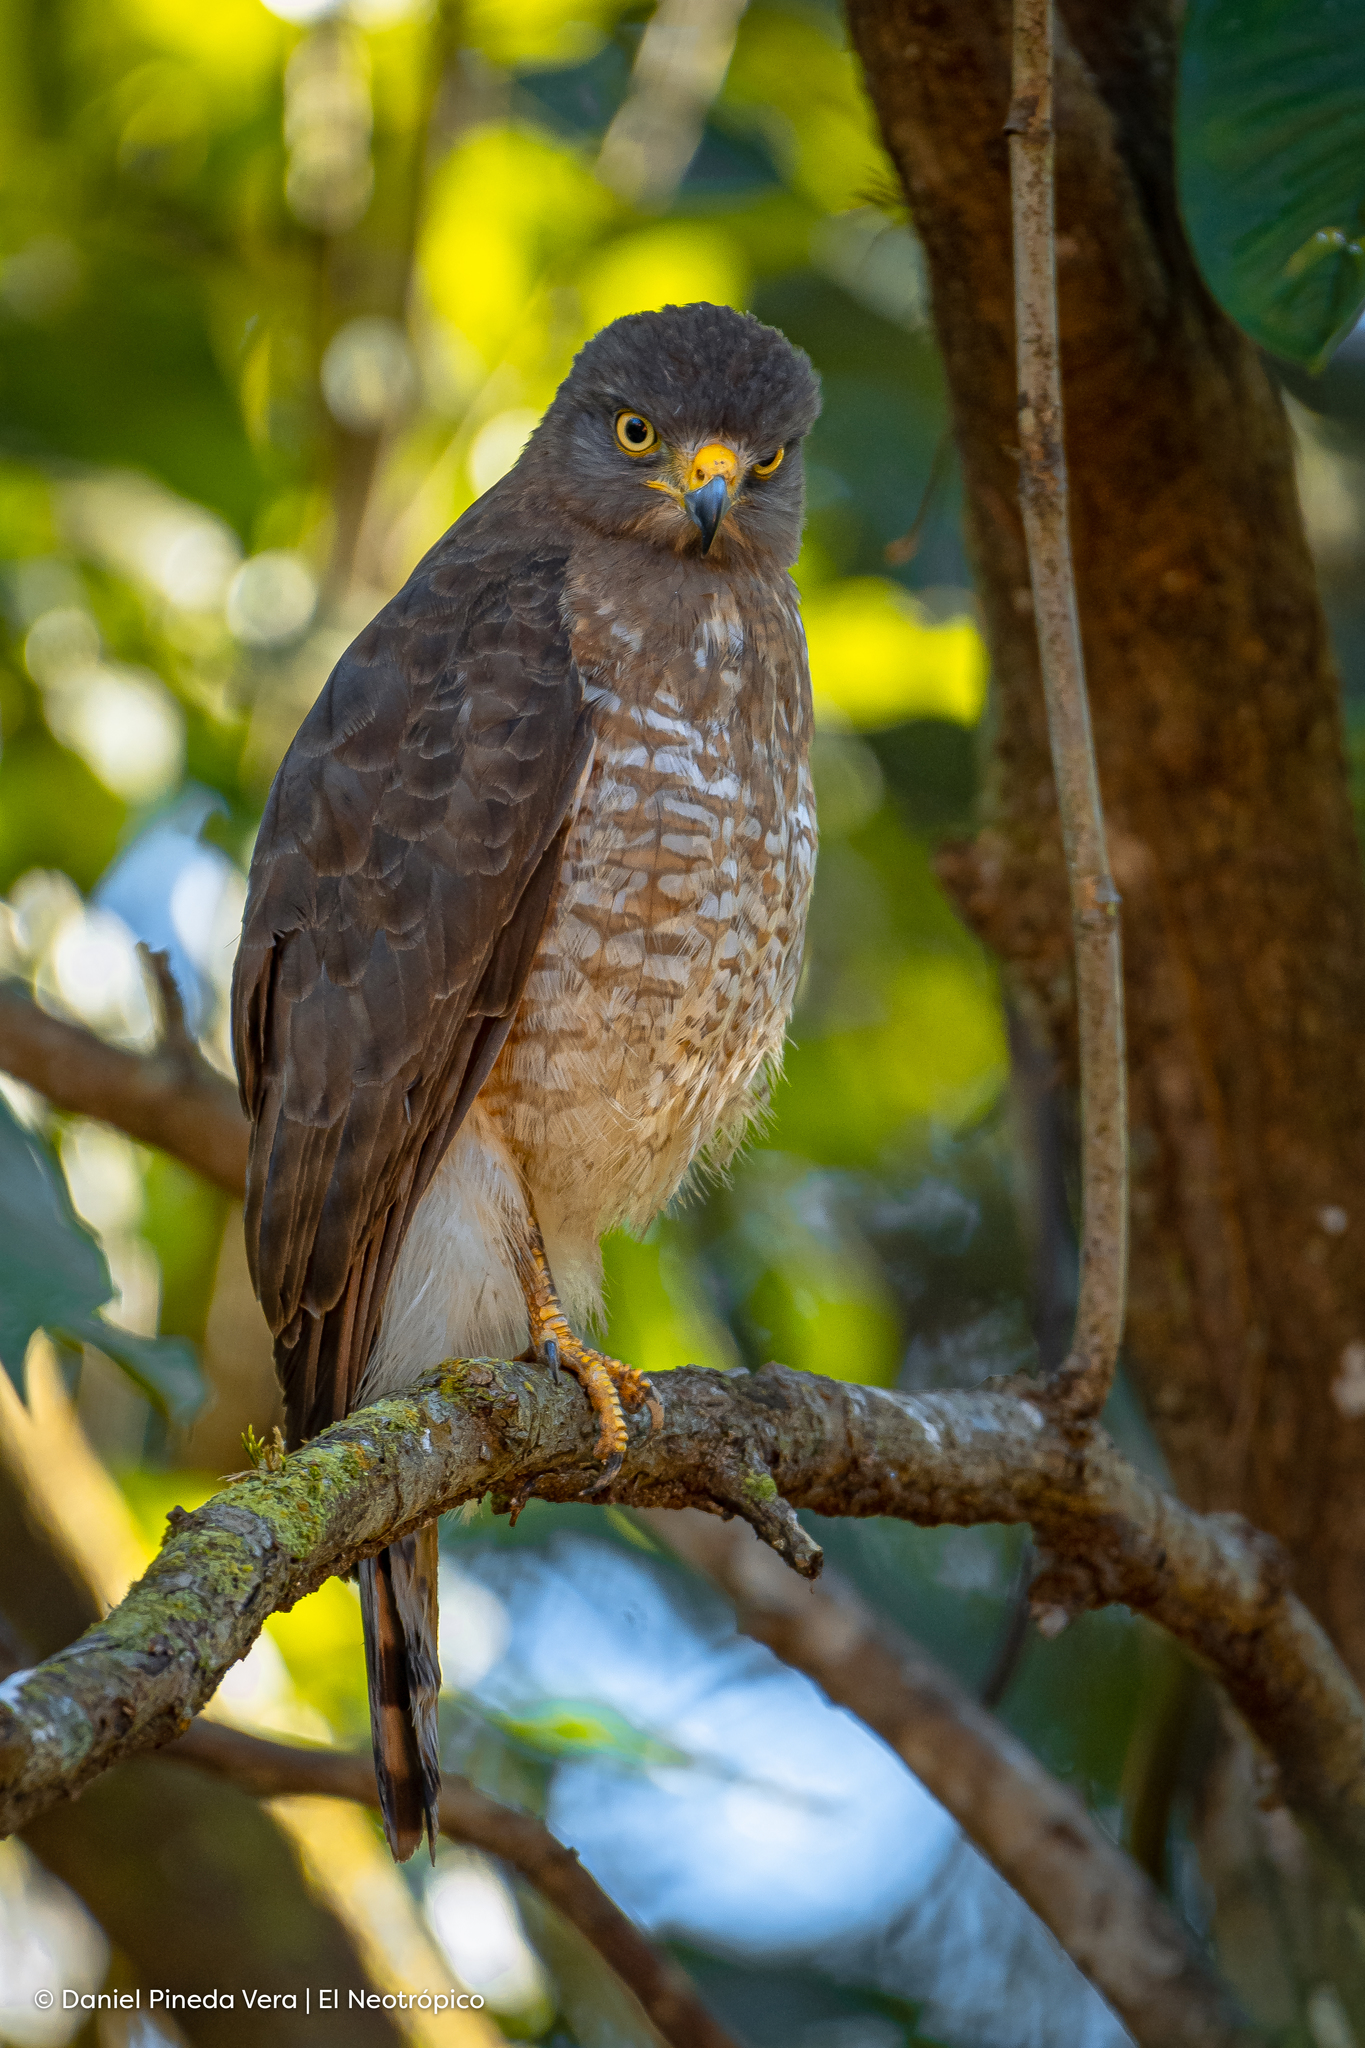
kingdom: Animalia
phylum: Chordata
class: Aves
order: Accipitriformes
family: Accipitridae
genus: Rupornis
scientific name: Rupornis magnirostris
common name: Roadside hawk
